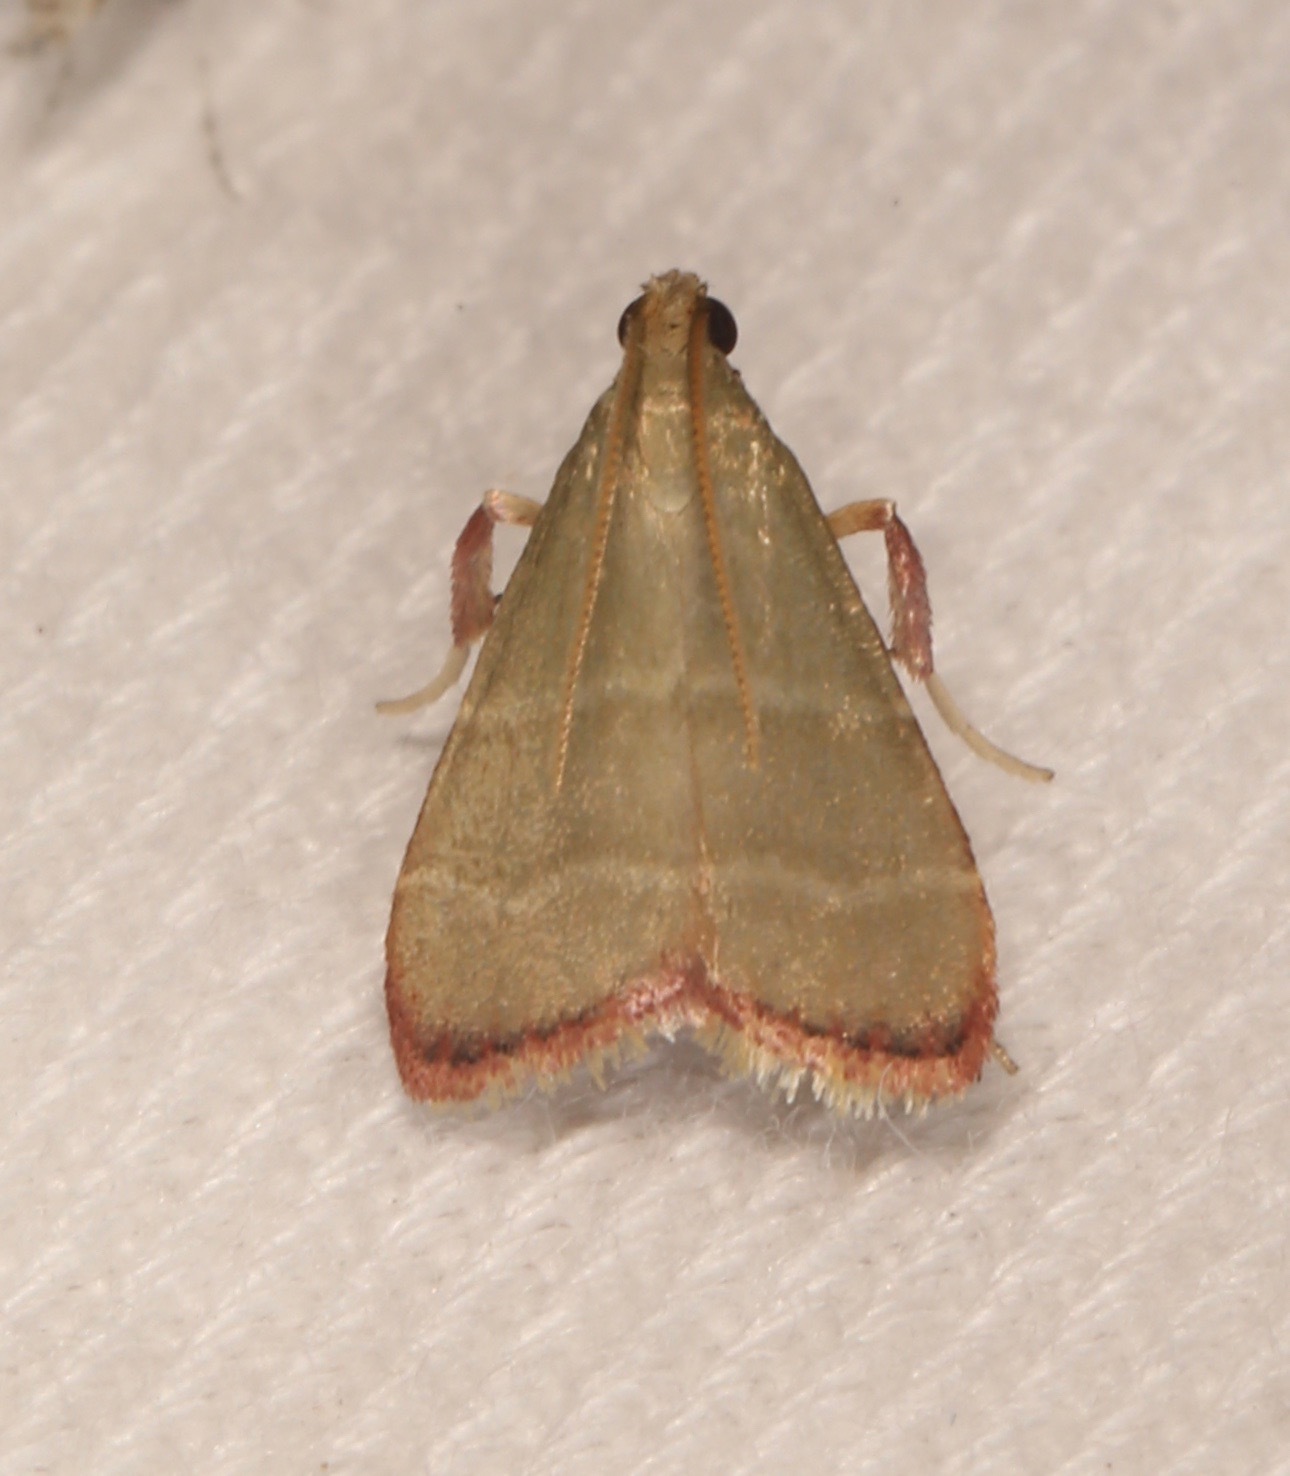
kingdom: Animalia
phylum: Arthropoda
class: Insecta
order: Lepidoptera
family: Pyralidae
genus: Arta
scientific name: Arta olivalis
